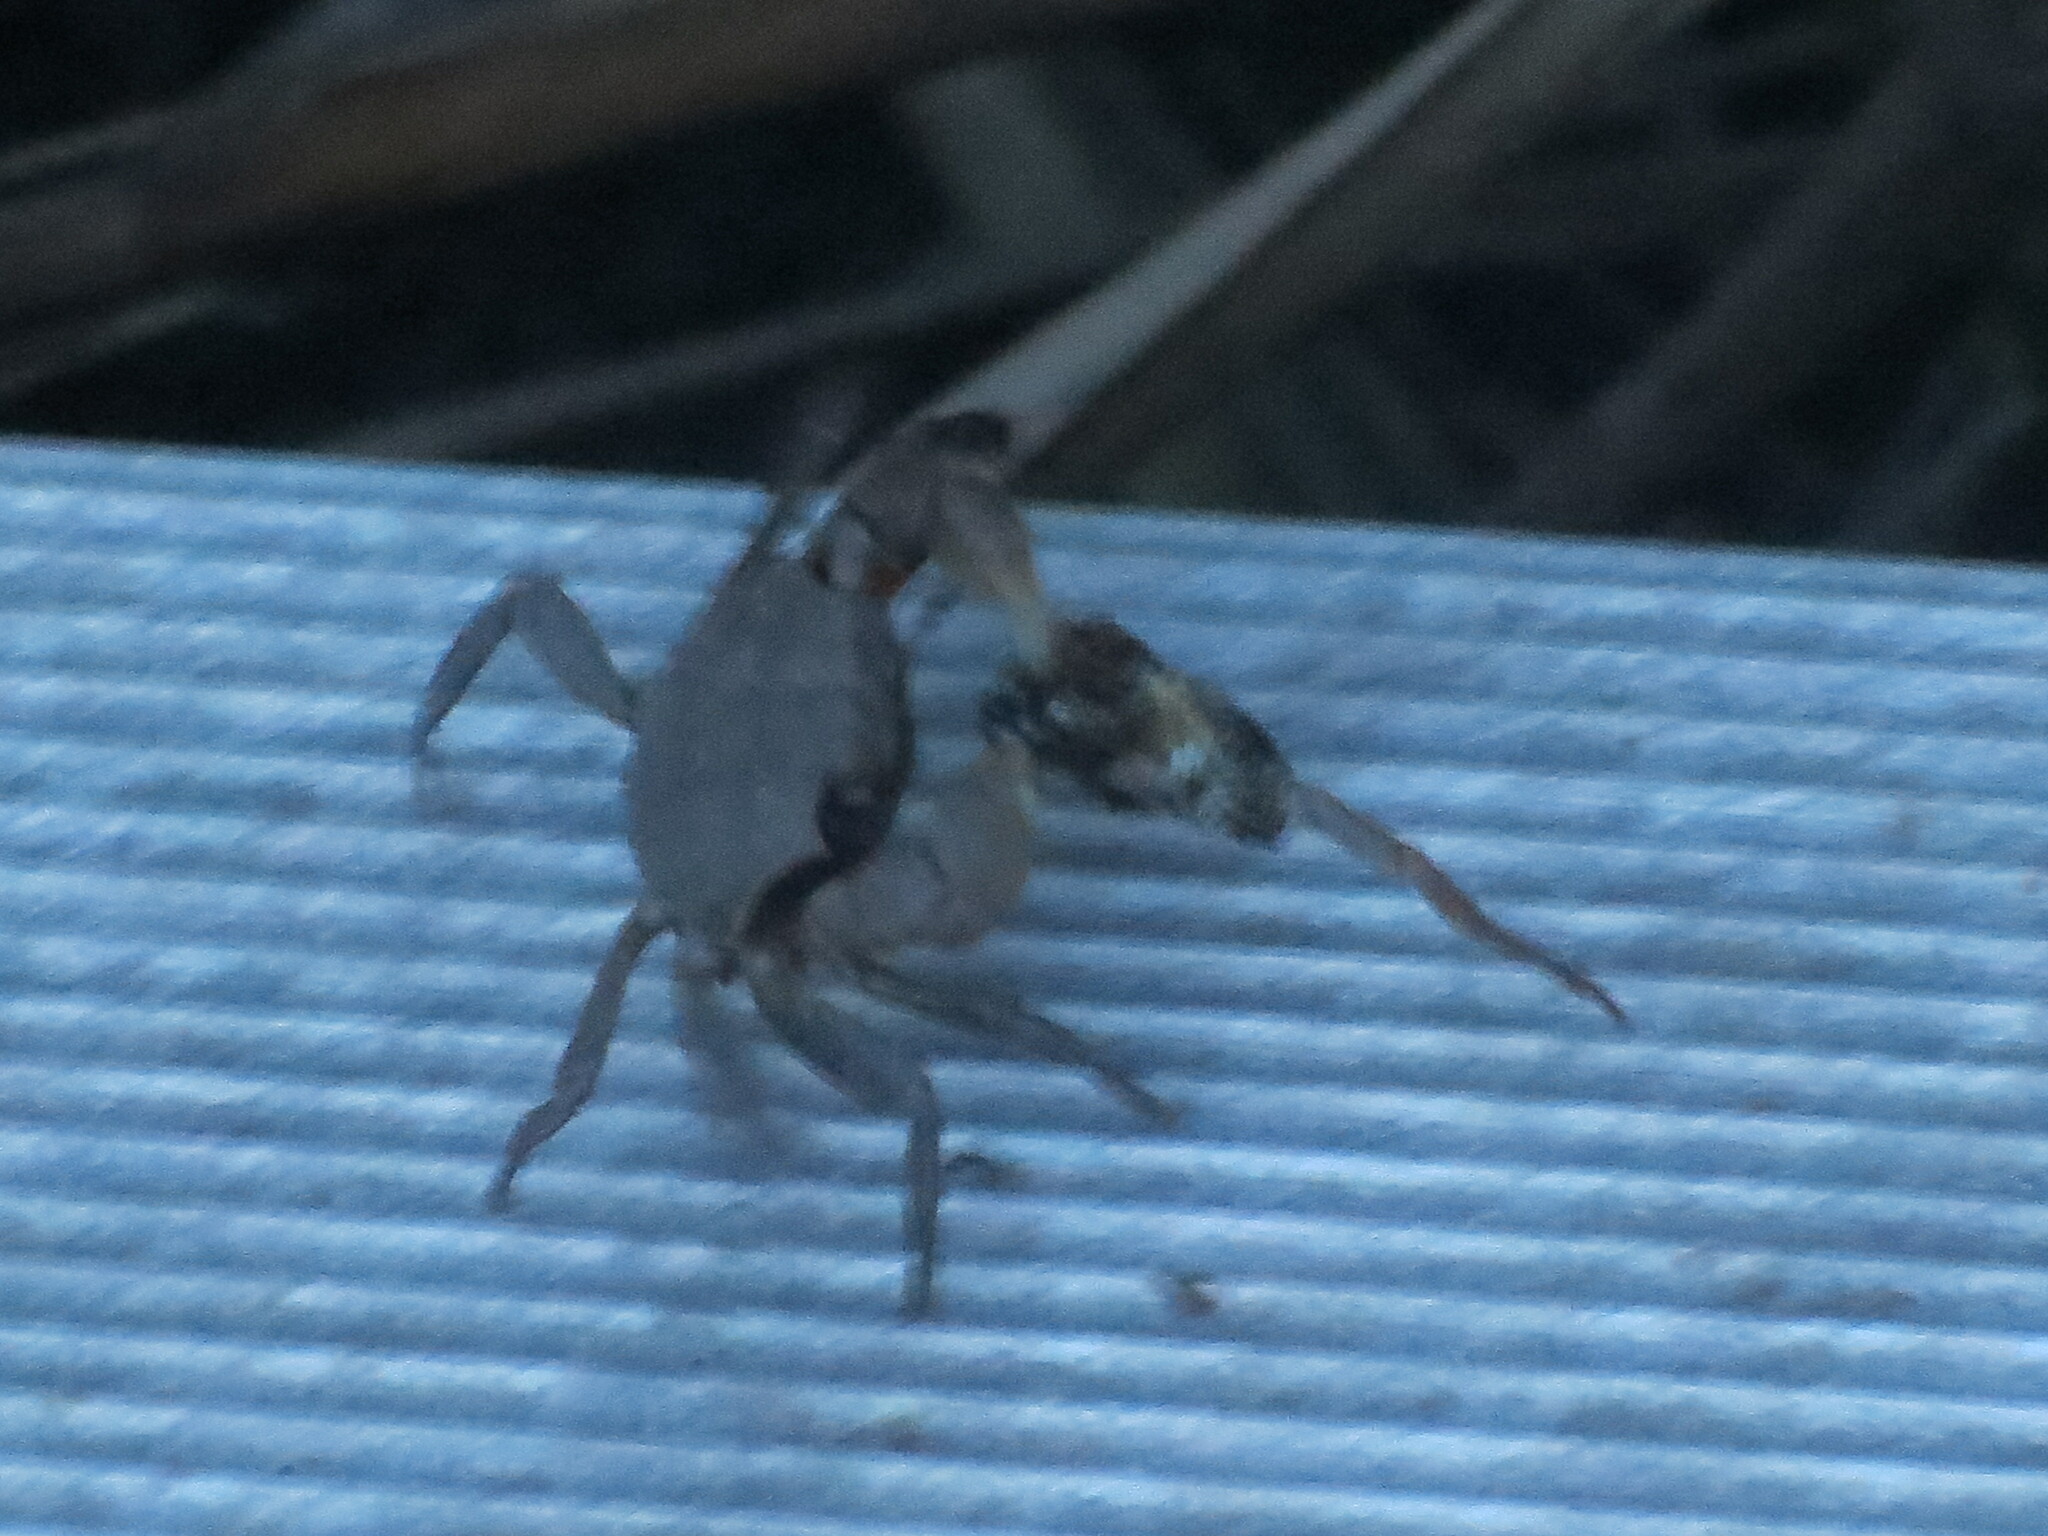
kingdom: Animalia
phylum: Arthropoda
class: Malacostraca
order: Decapoda
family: Sesarmidae
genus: Armases
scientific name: Armases cinereum
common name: Squareback marsh crab
